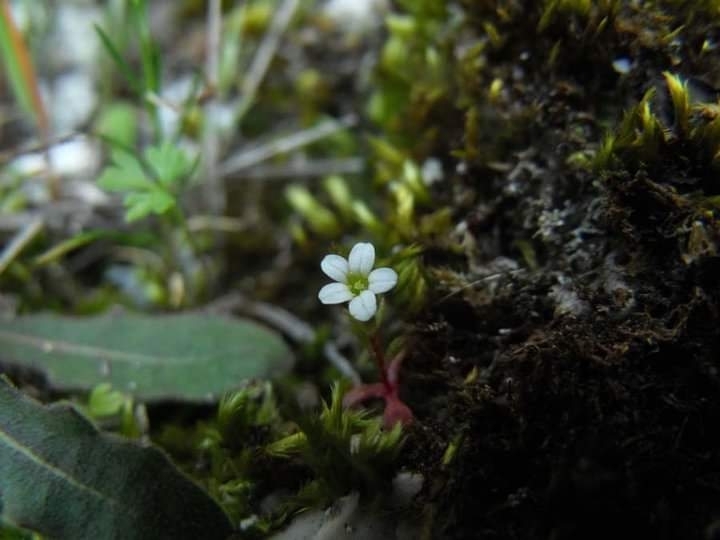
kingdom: Plantae
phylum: Tracheophyta
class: Magnoliopsida
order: Saxifragales
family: Saxifragaceae
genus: Saxifraga
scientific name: Saxifraga tridactylites
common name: Rue-leaved saxifrage
